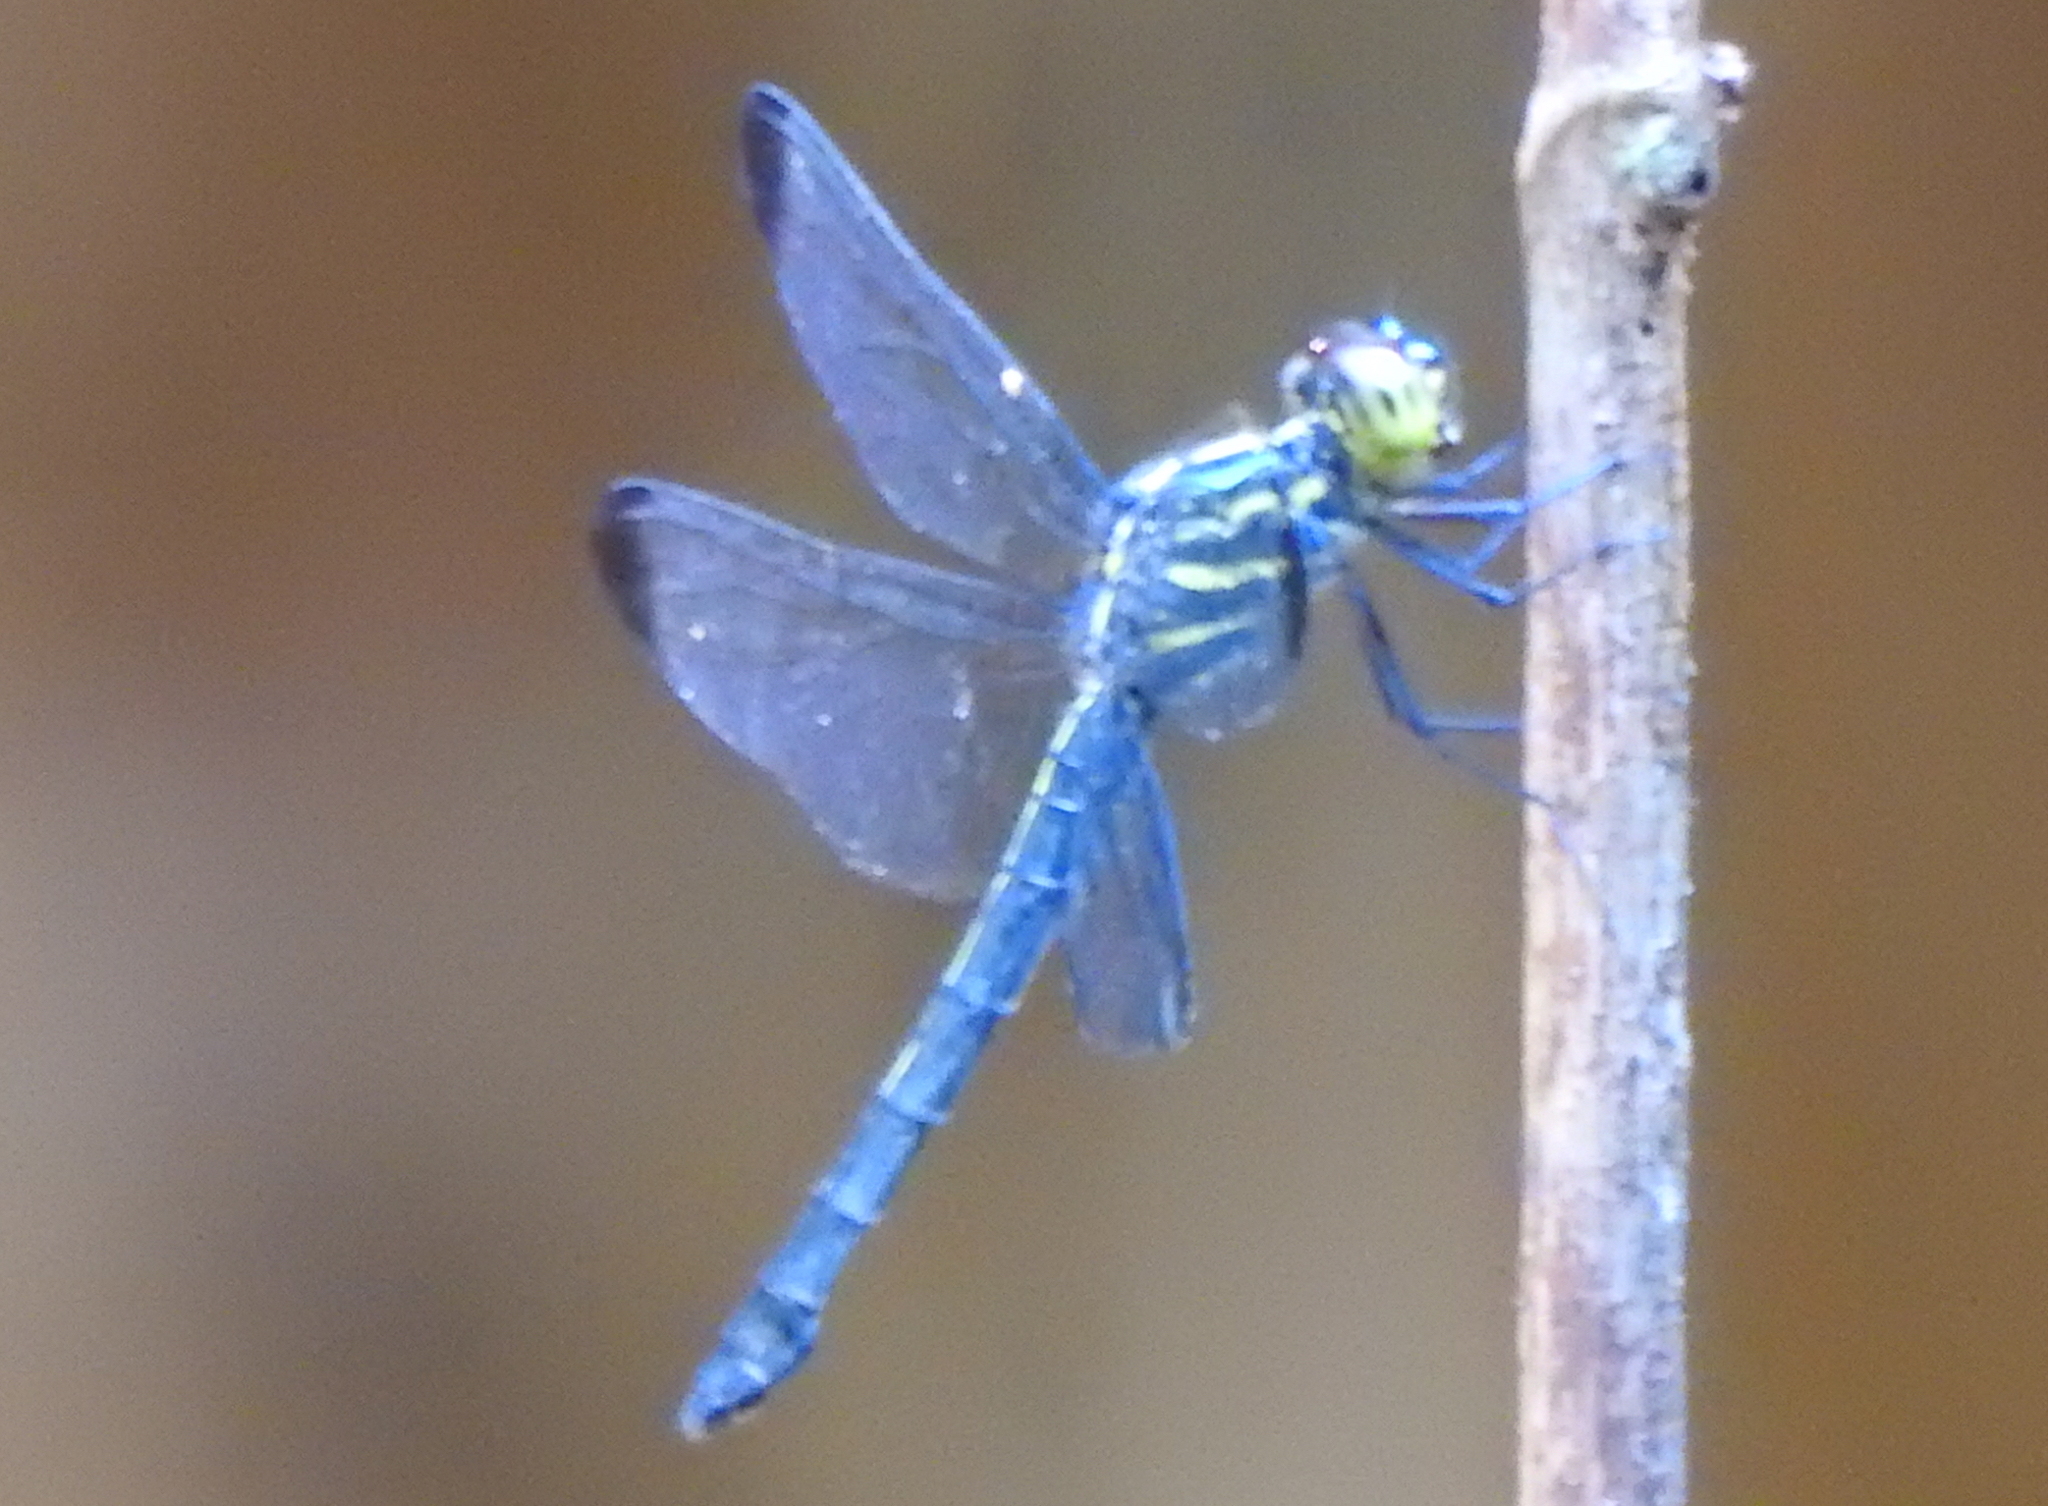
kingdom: Animalia
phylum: Arthropoda
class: Insecta
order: Odonata
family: Libellulidae
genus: Cratilla
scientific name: Cratilla metallica
